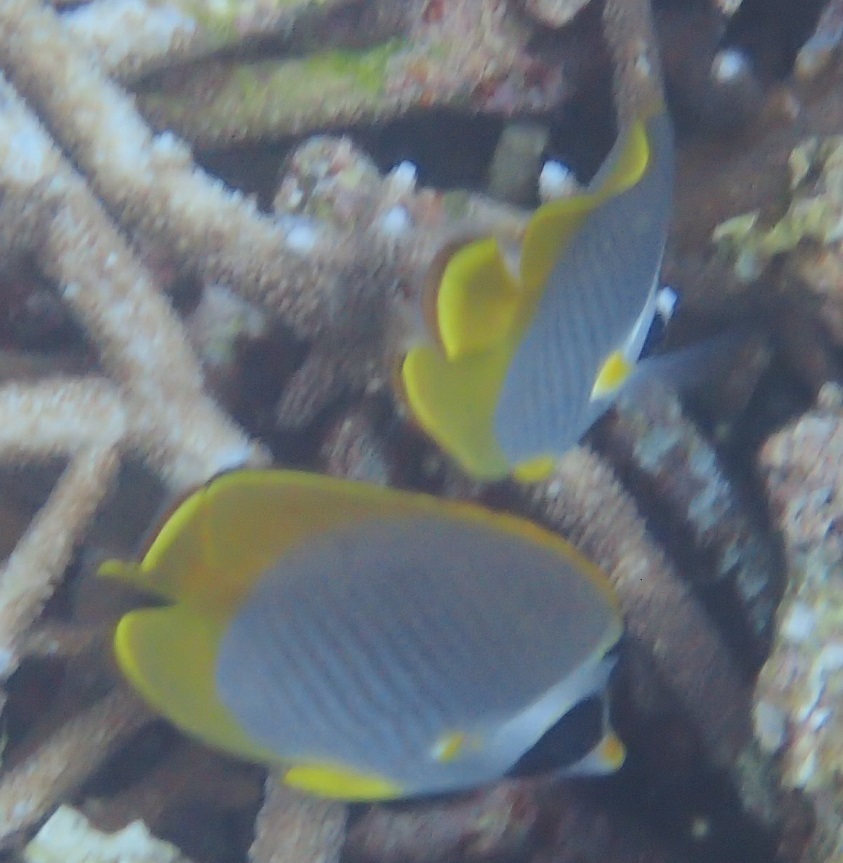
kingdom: Animalia
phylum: Chordata
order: Perciformes
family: Chaetodontidae
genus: Chaetodon
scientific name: Chaetodon adiergastos
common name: Eye-patch butterflyfish
